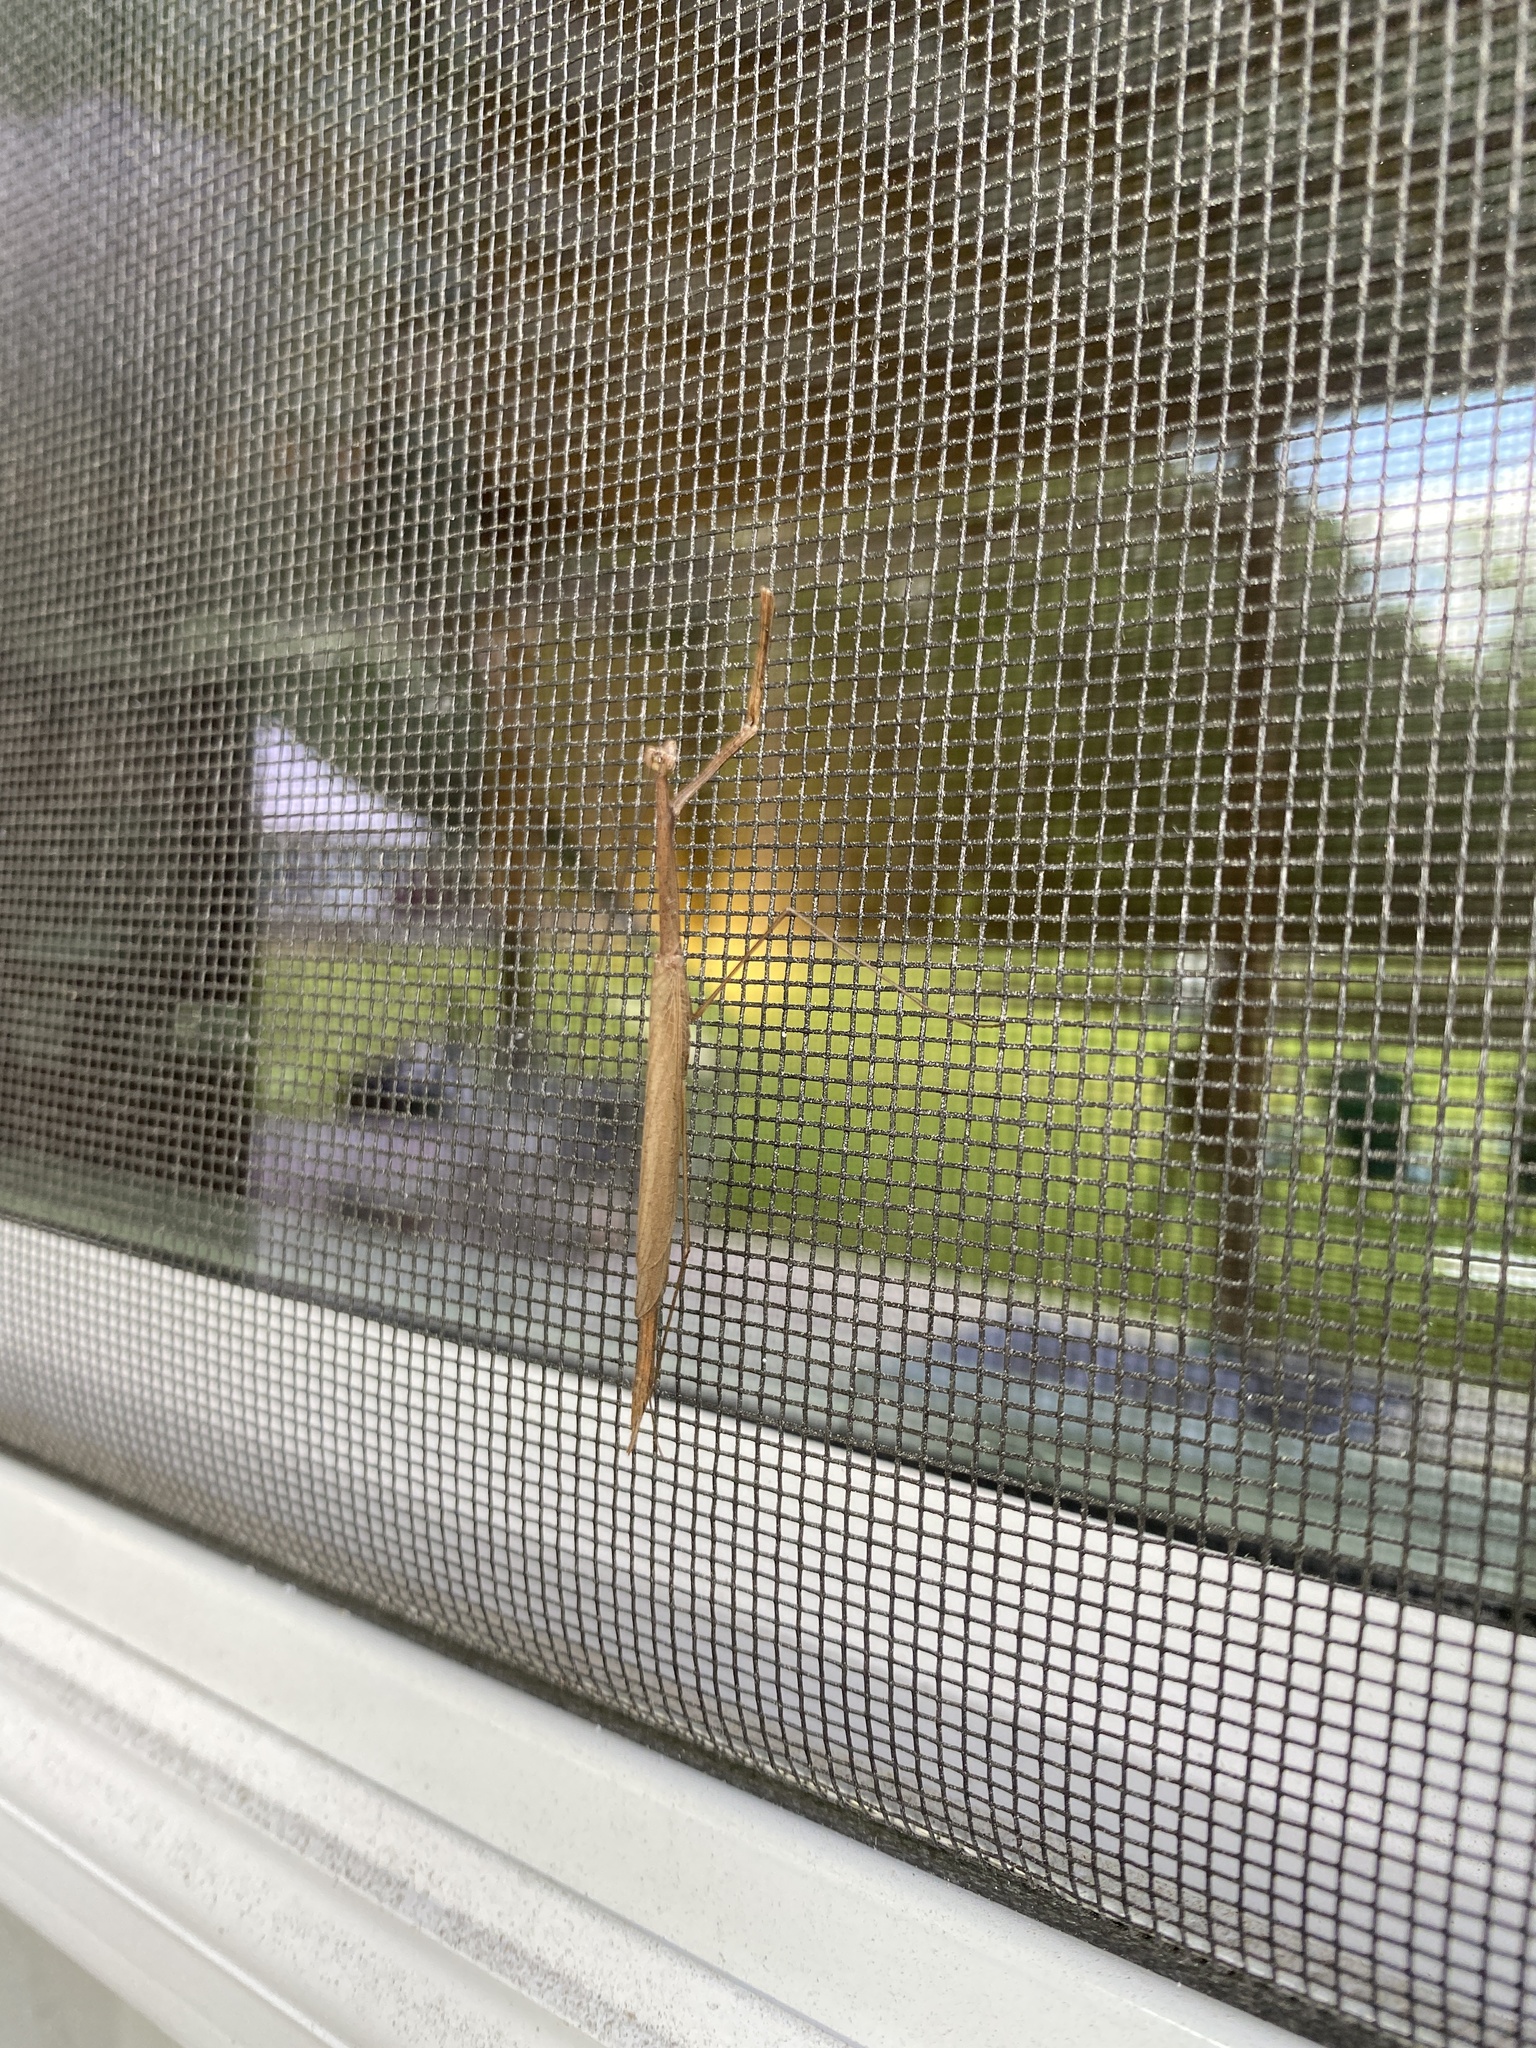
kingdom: Animalia
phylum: Arthropoda
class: Insecta
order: Mantodea
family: Thespidae
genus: Thesprotia
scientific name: Thesprotia graminis
